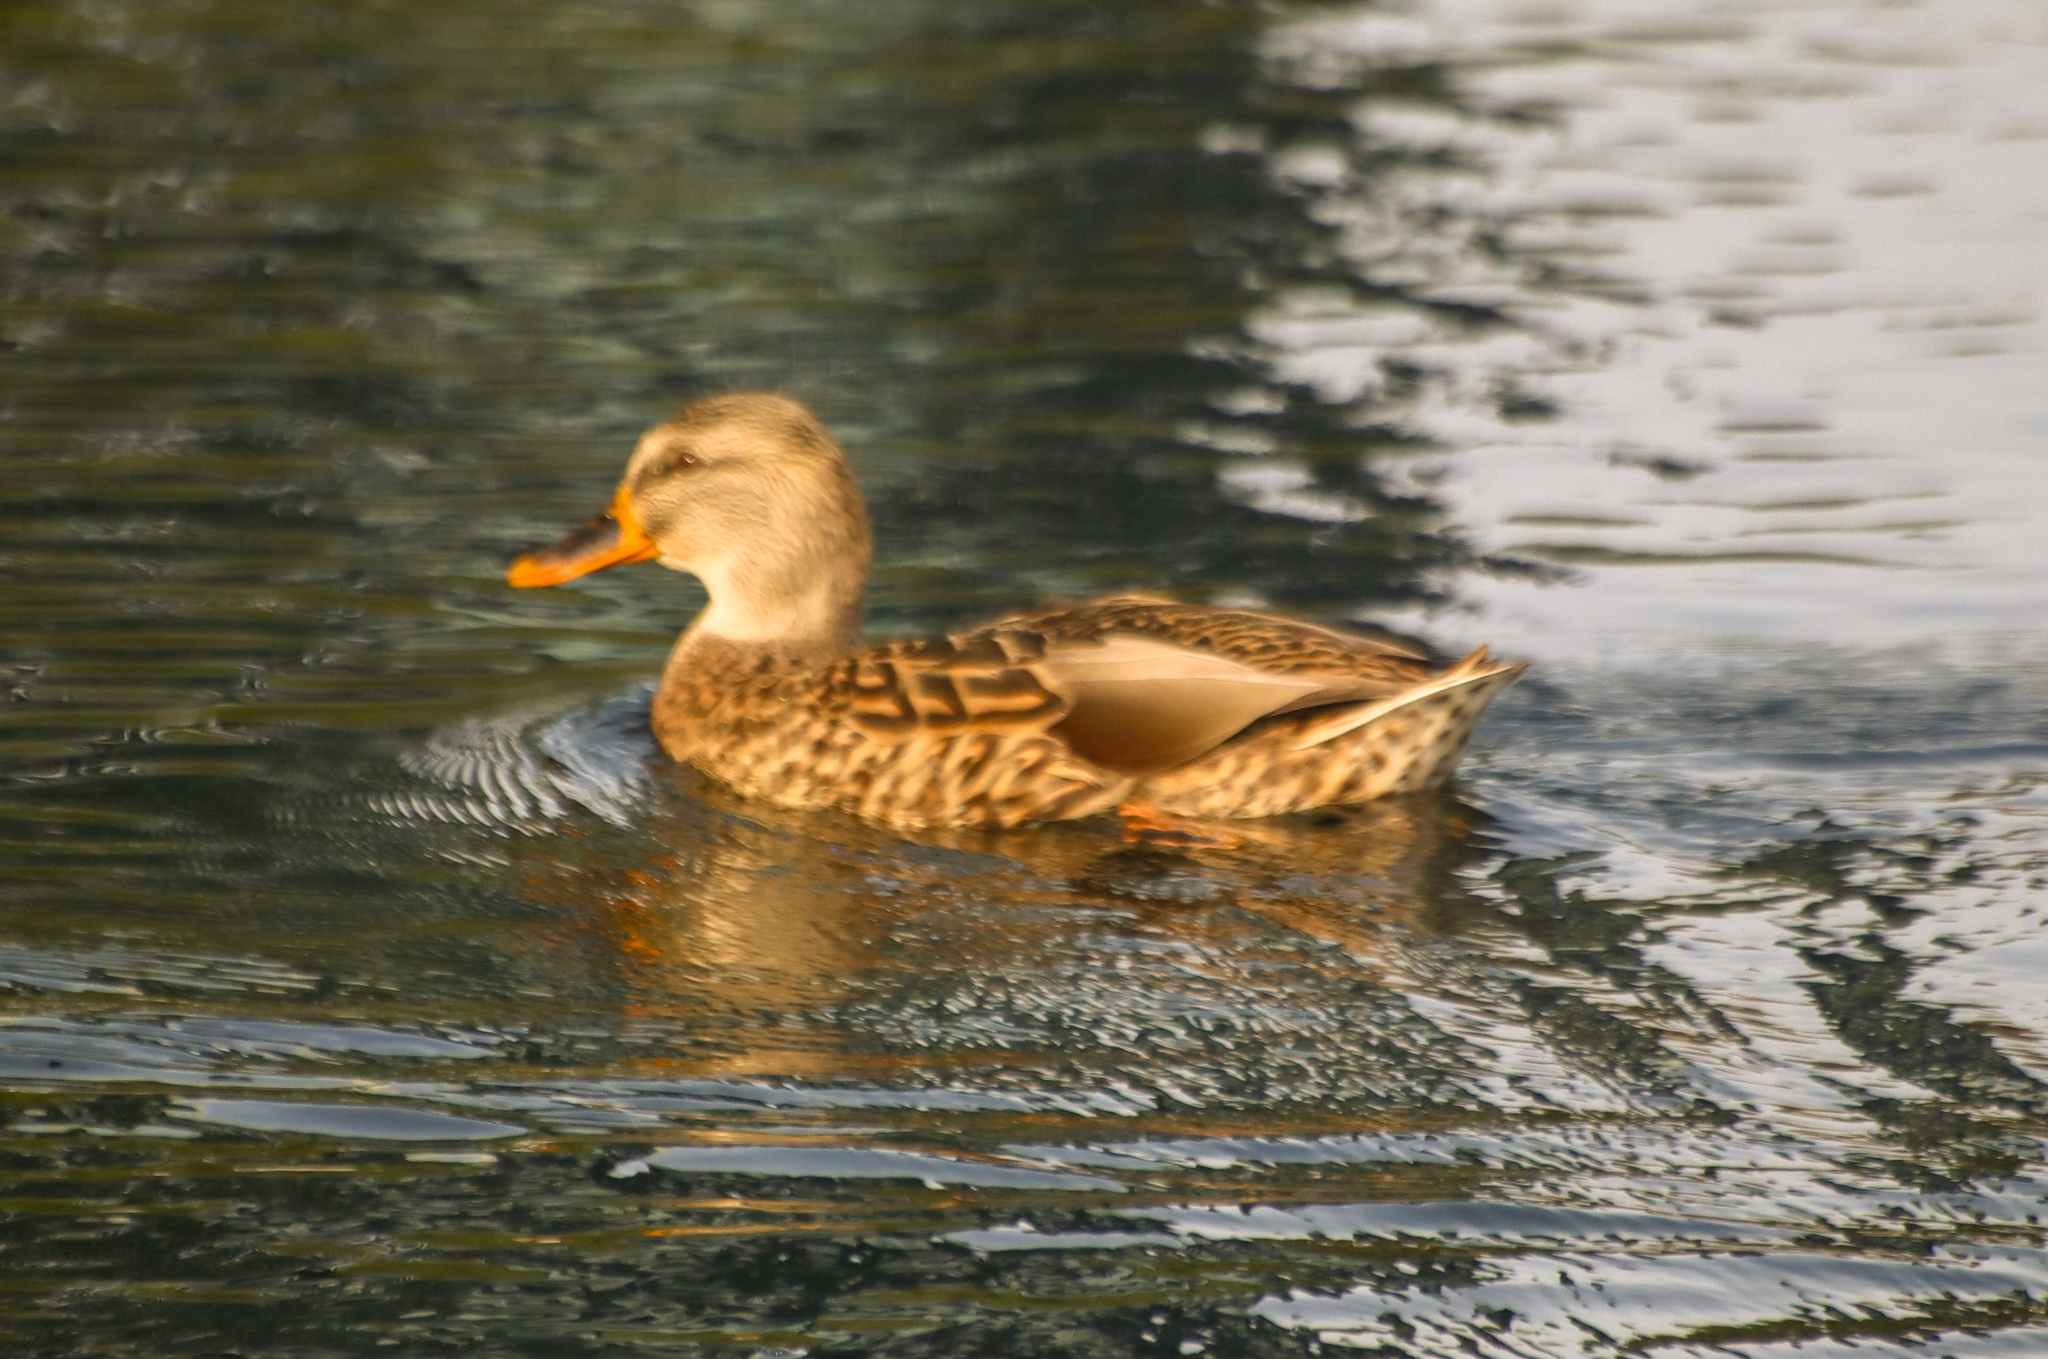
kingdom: Animalia
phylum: Chordata
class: Aves
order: Anseriformes
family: Anatidae
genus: Anas
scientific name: Anas platyrhynchos
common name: Mallard
